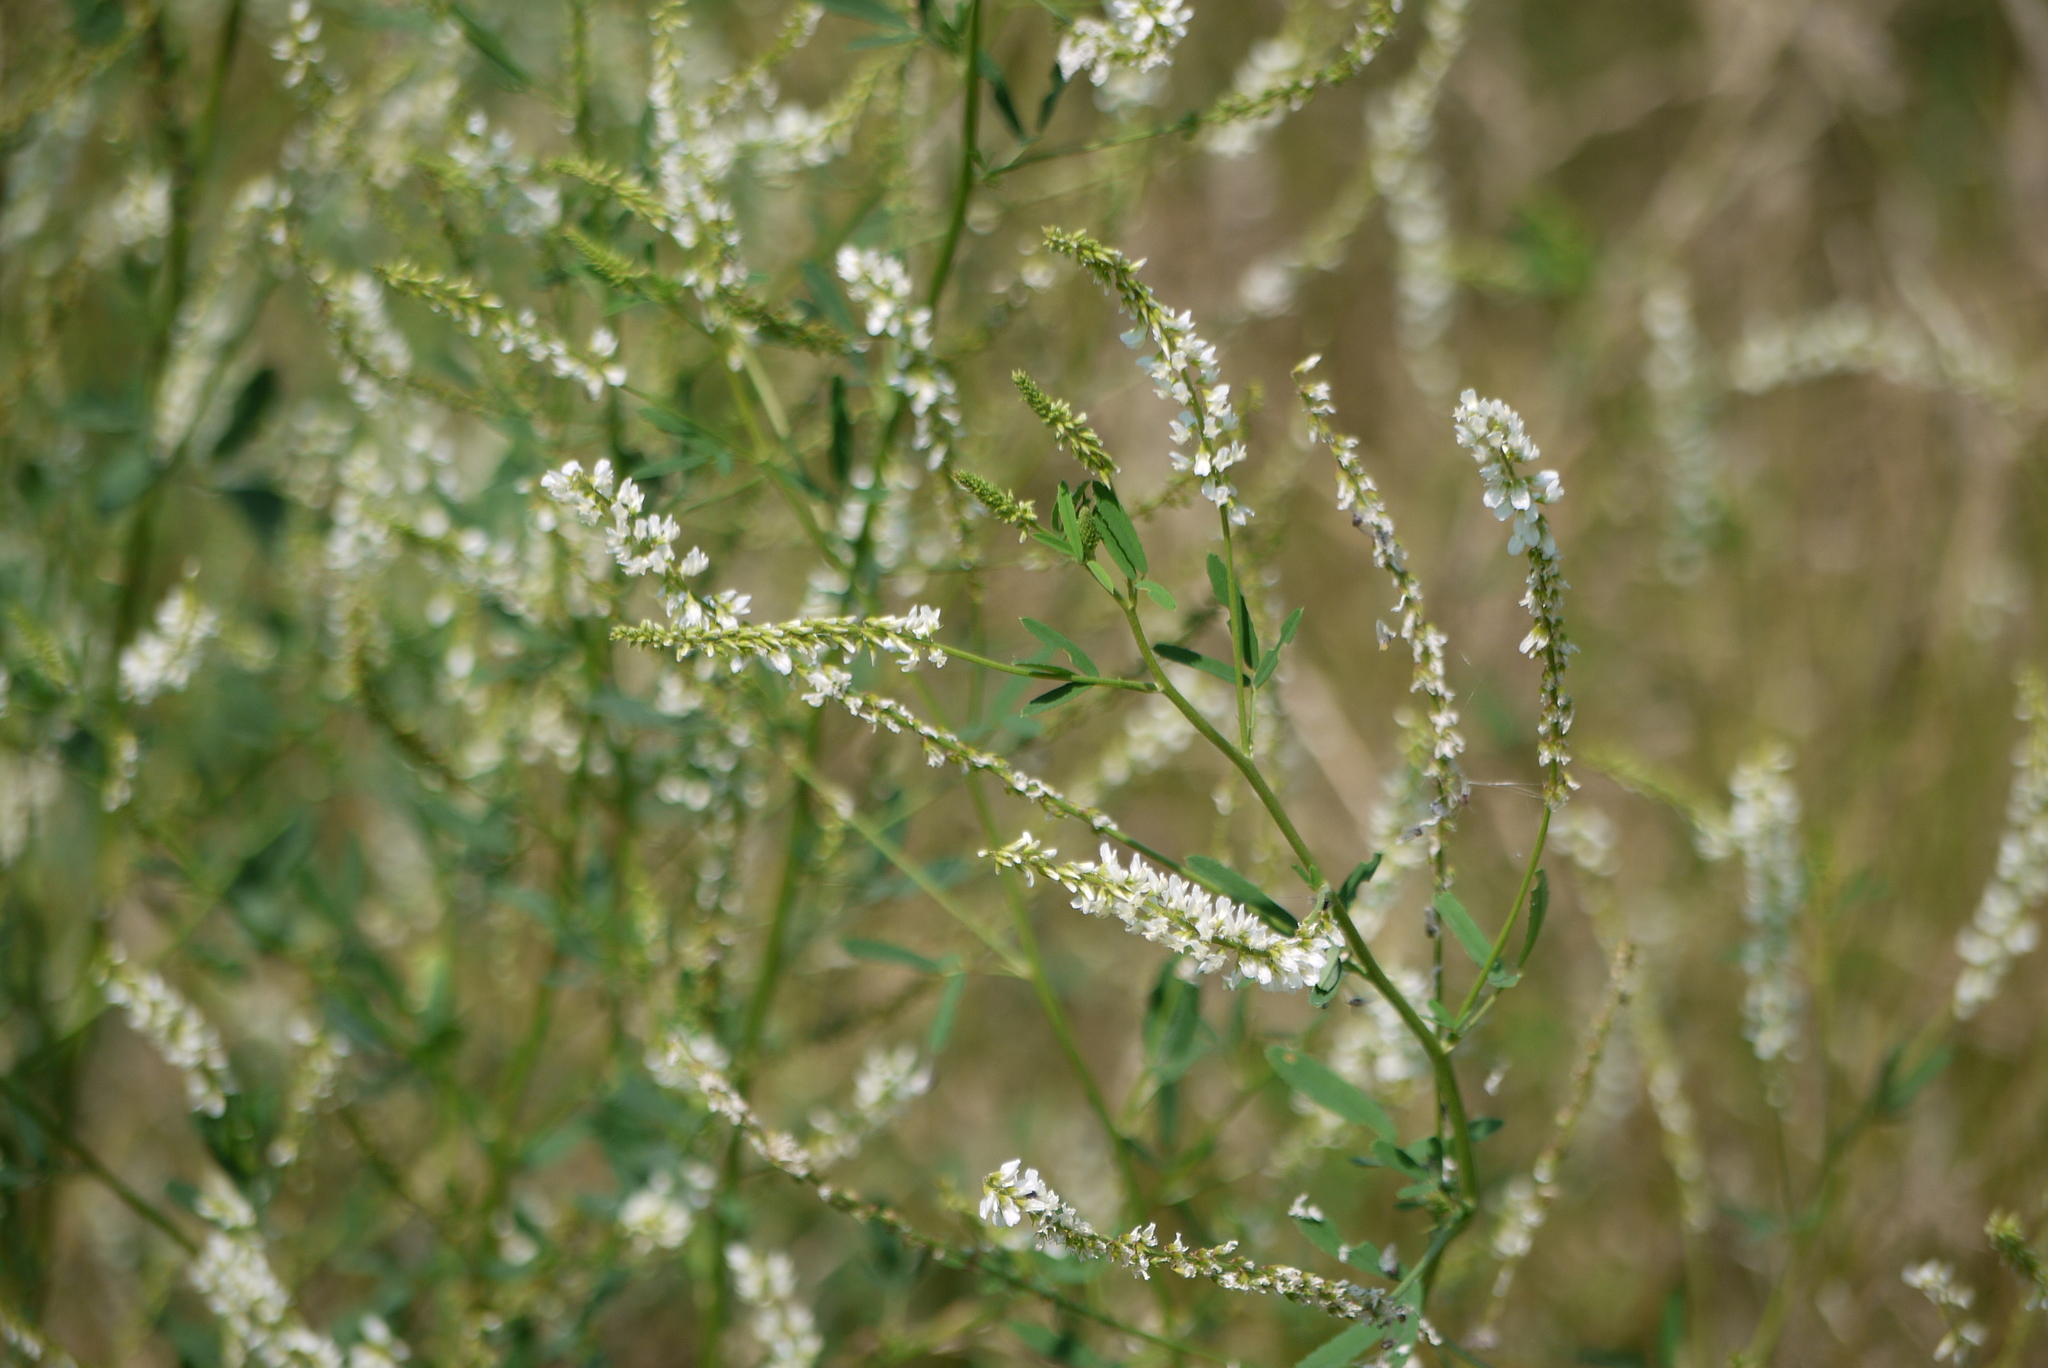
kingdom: Plantae
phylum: Tracheophyta
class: Magnoliopsida
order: Fabales
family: Fabaceae
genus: Melilotus
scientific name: Melilotus albus
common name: White melilot
